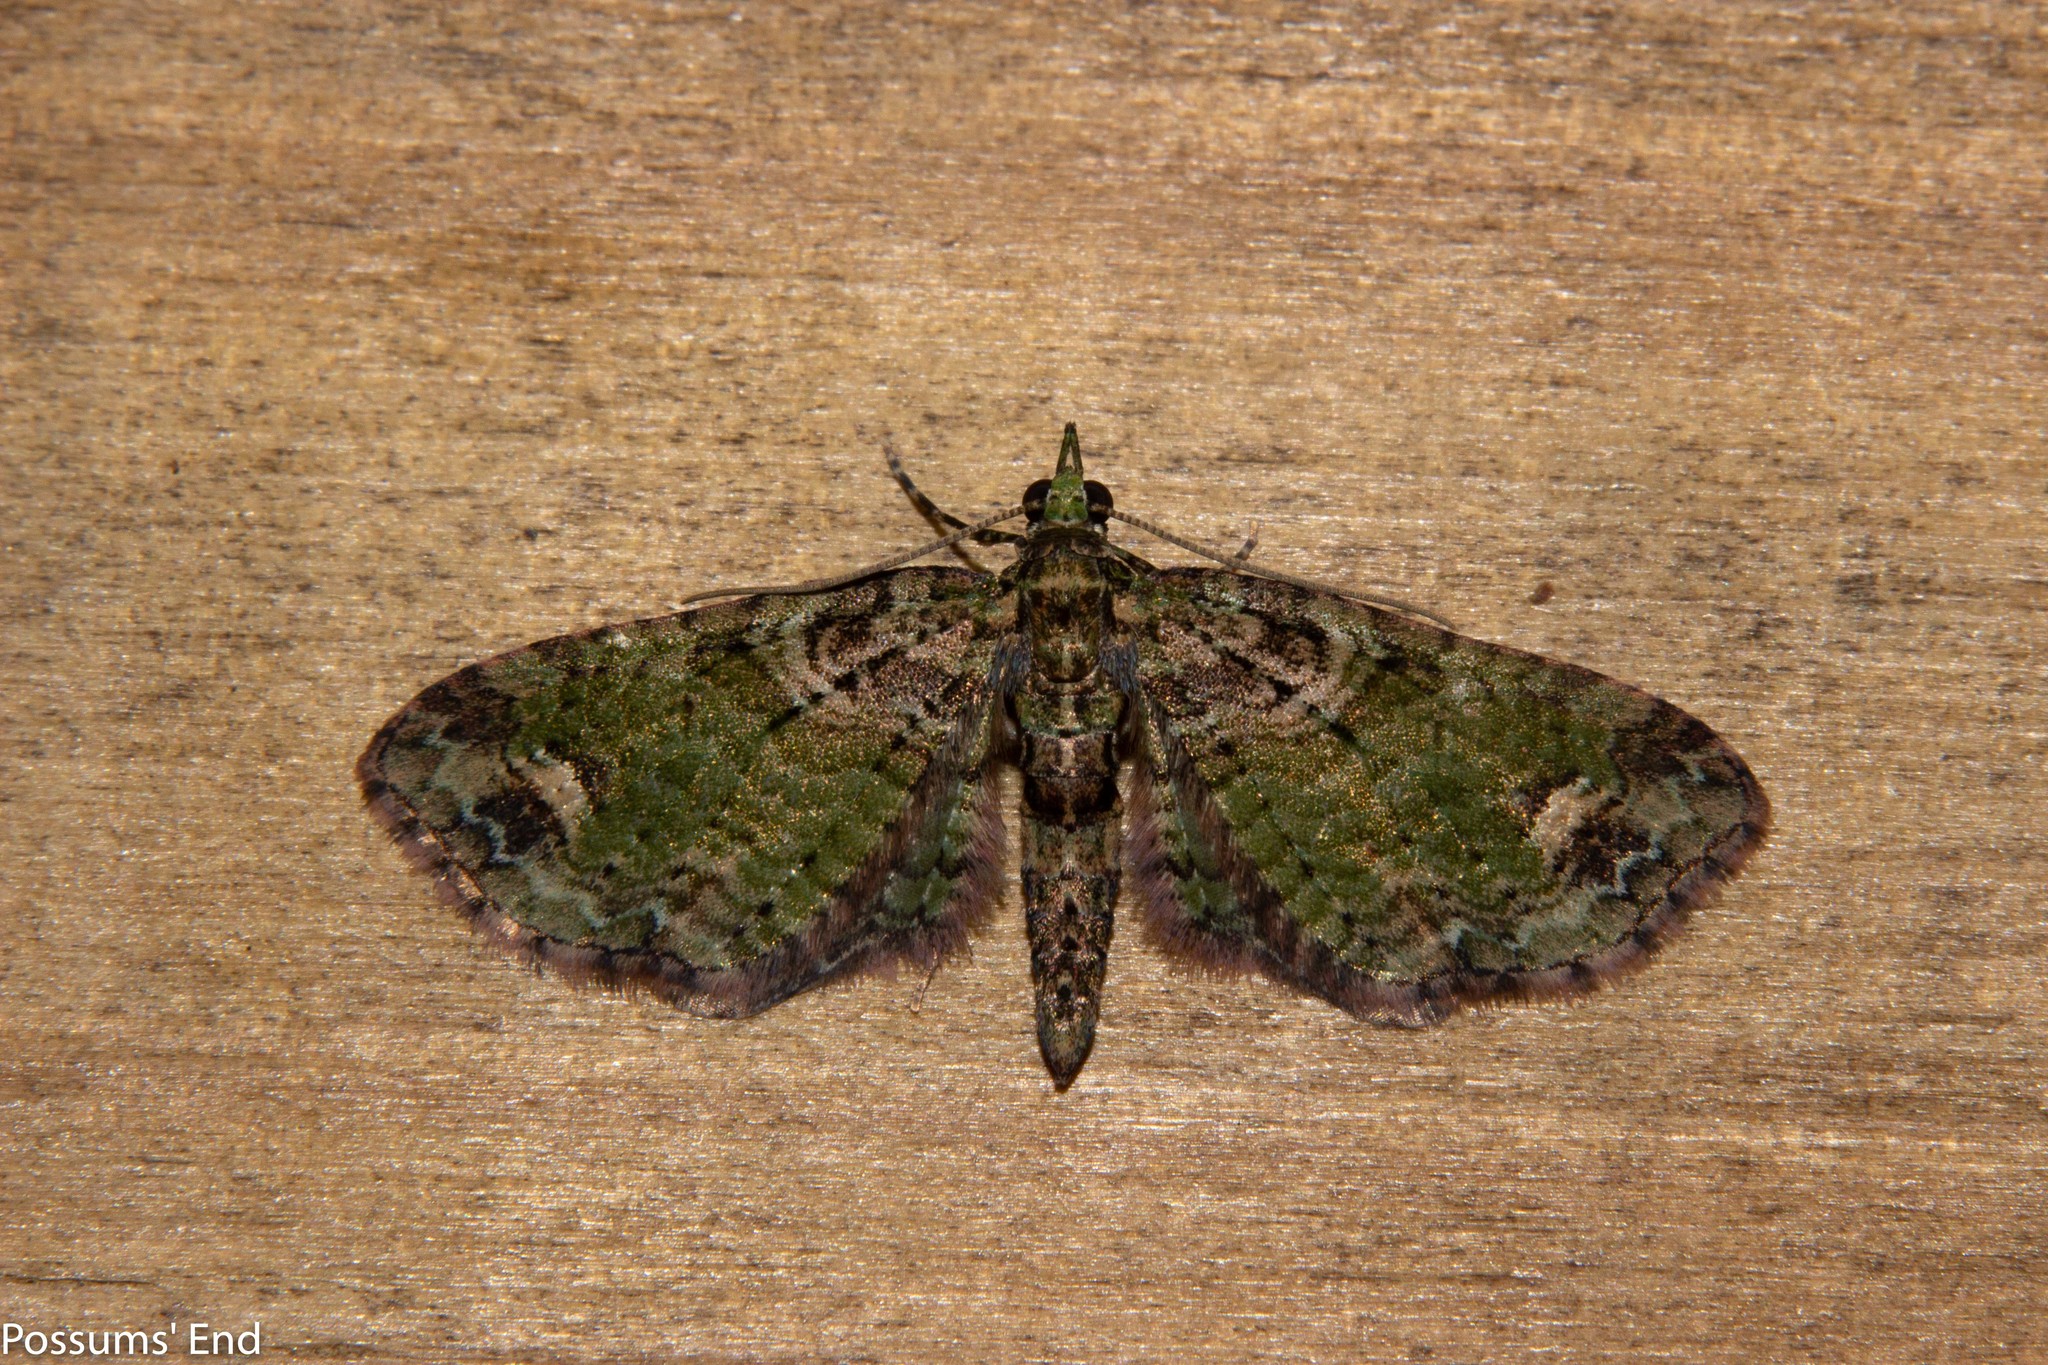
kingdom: Animalia
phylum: Arthropoda
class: Insecta
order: Lepidoptera
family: Geometridae
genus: Idaea
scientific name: Idaea mutanda
